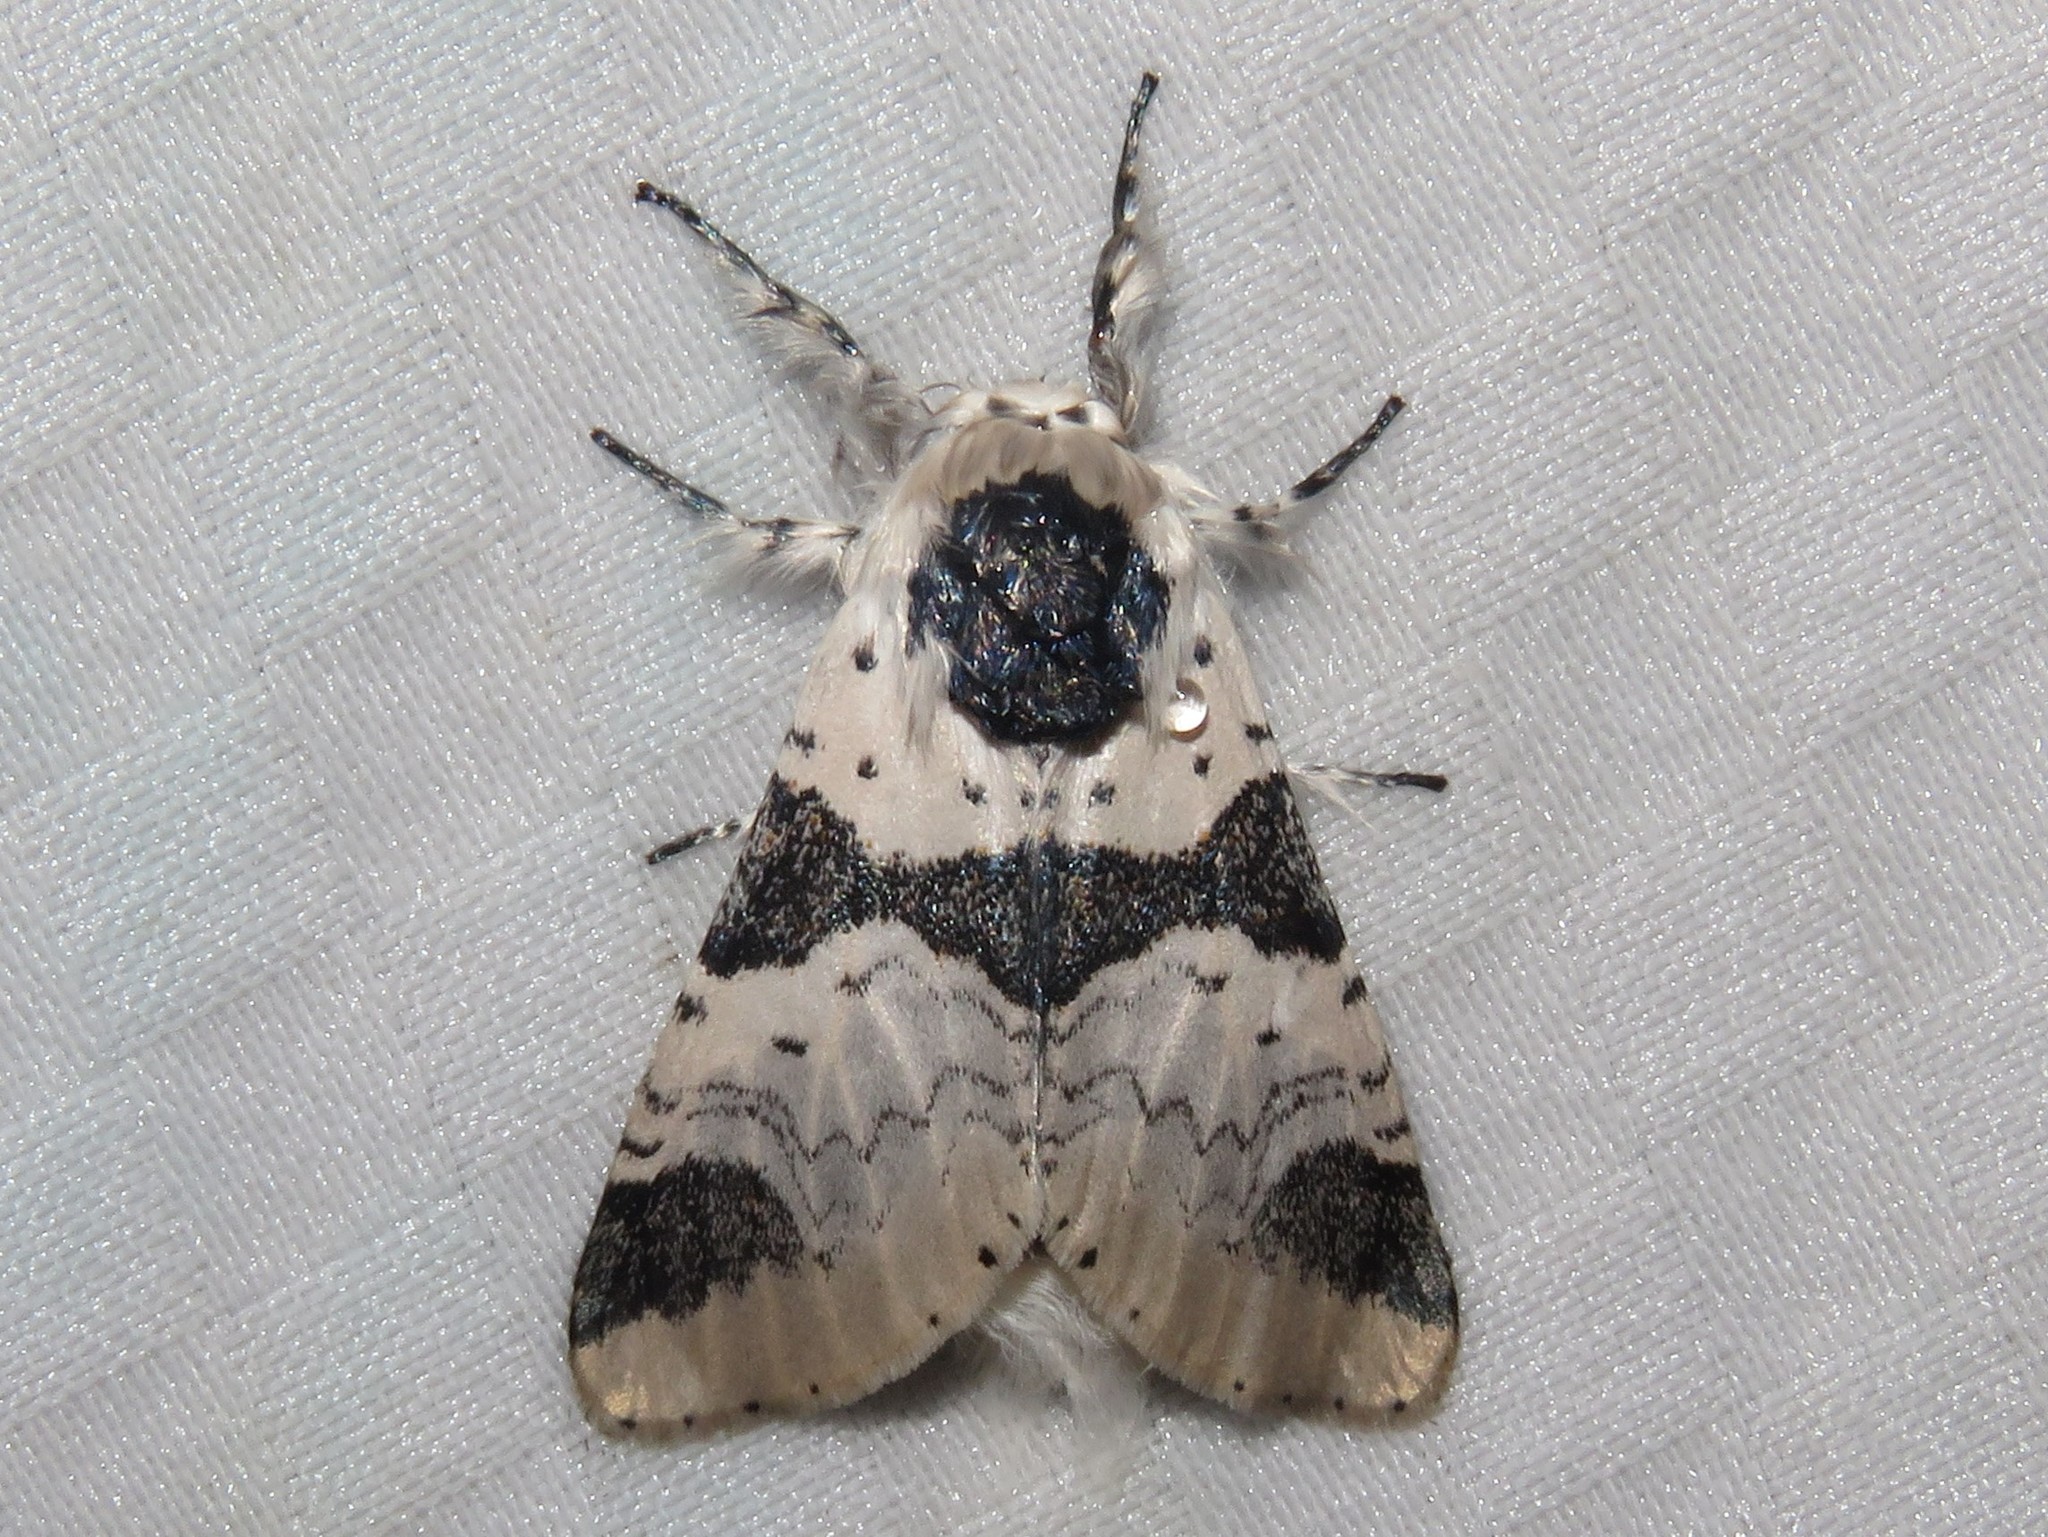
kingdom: Animalia
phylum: Arthropoda
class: Insecta
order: Lepidoptera
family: Notodontidae
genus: Furcula
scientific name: Furcula modesta
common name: Modest furcula moth
